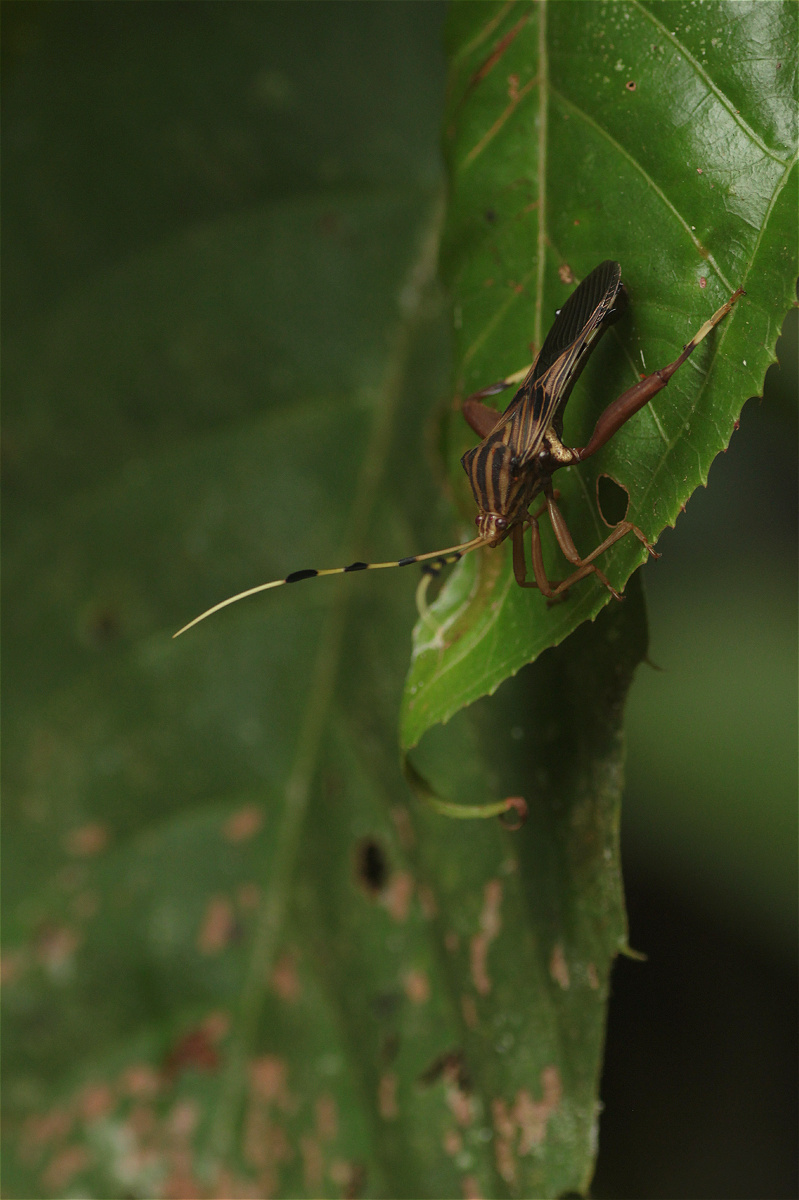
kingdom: Animalia
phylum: Arthropoda
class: Insecta
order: Hemiptera
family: Coreidae
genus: Spathophora
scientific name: Spathophora biclavata
